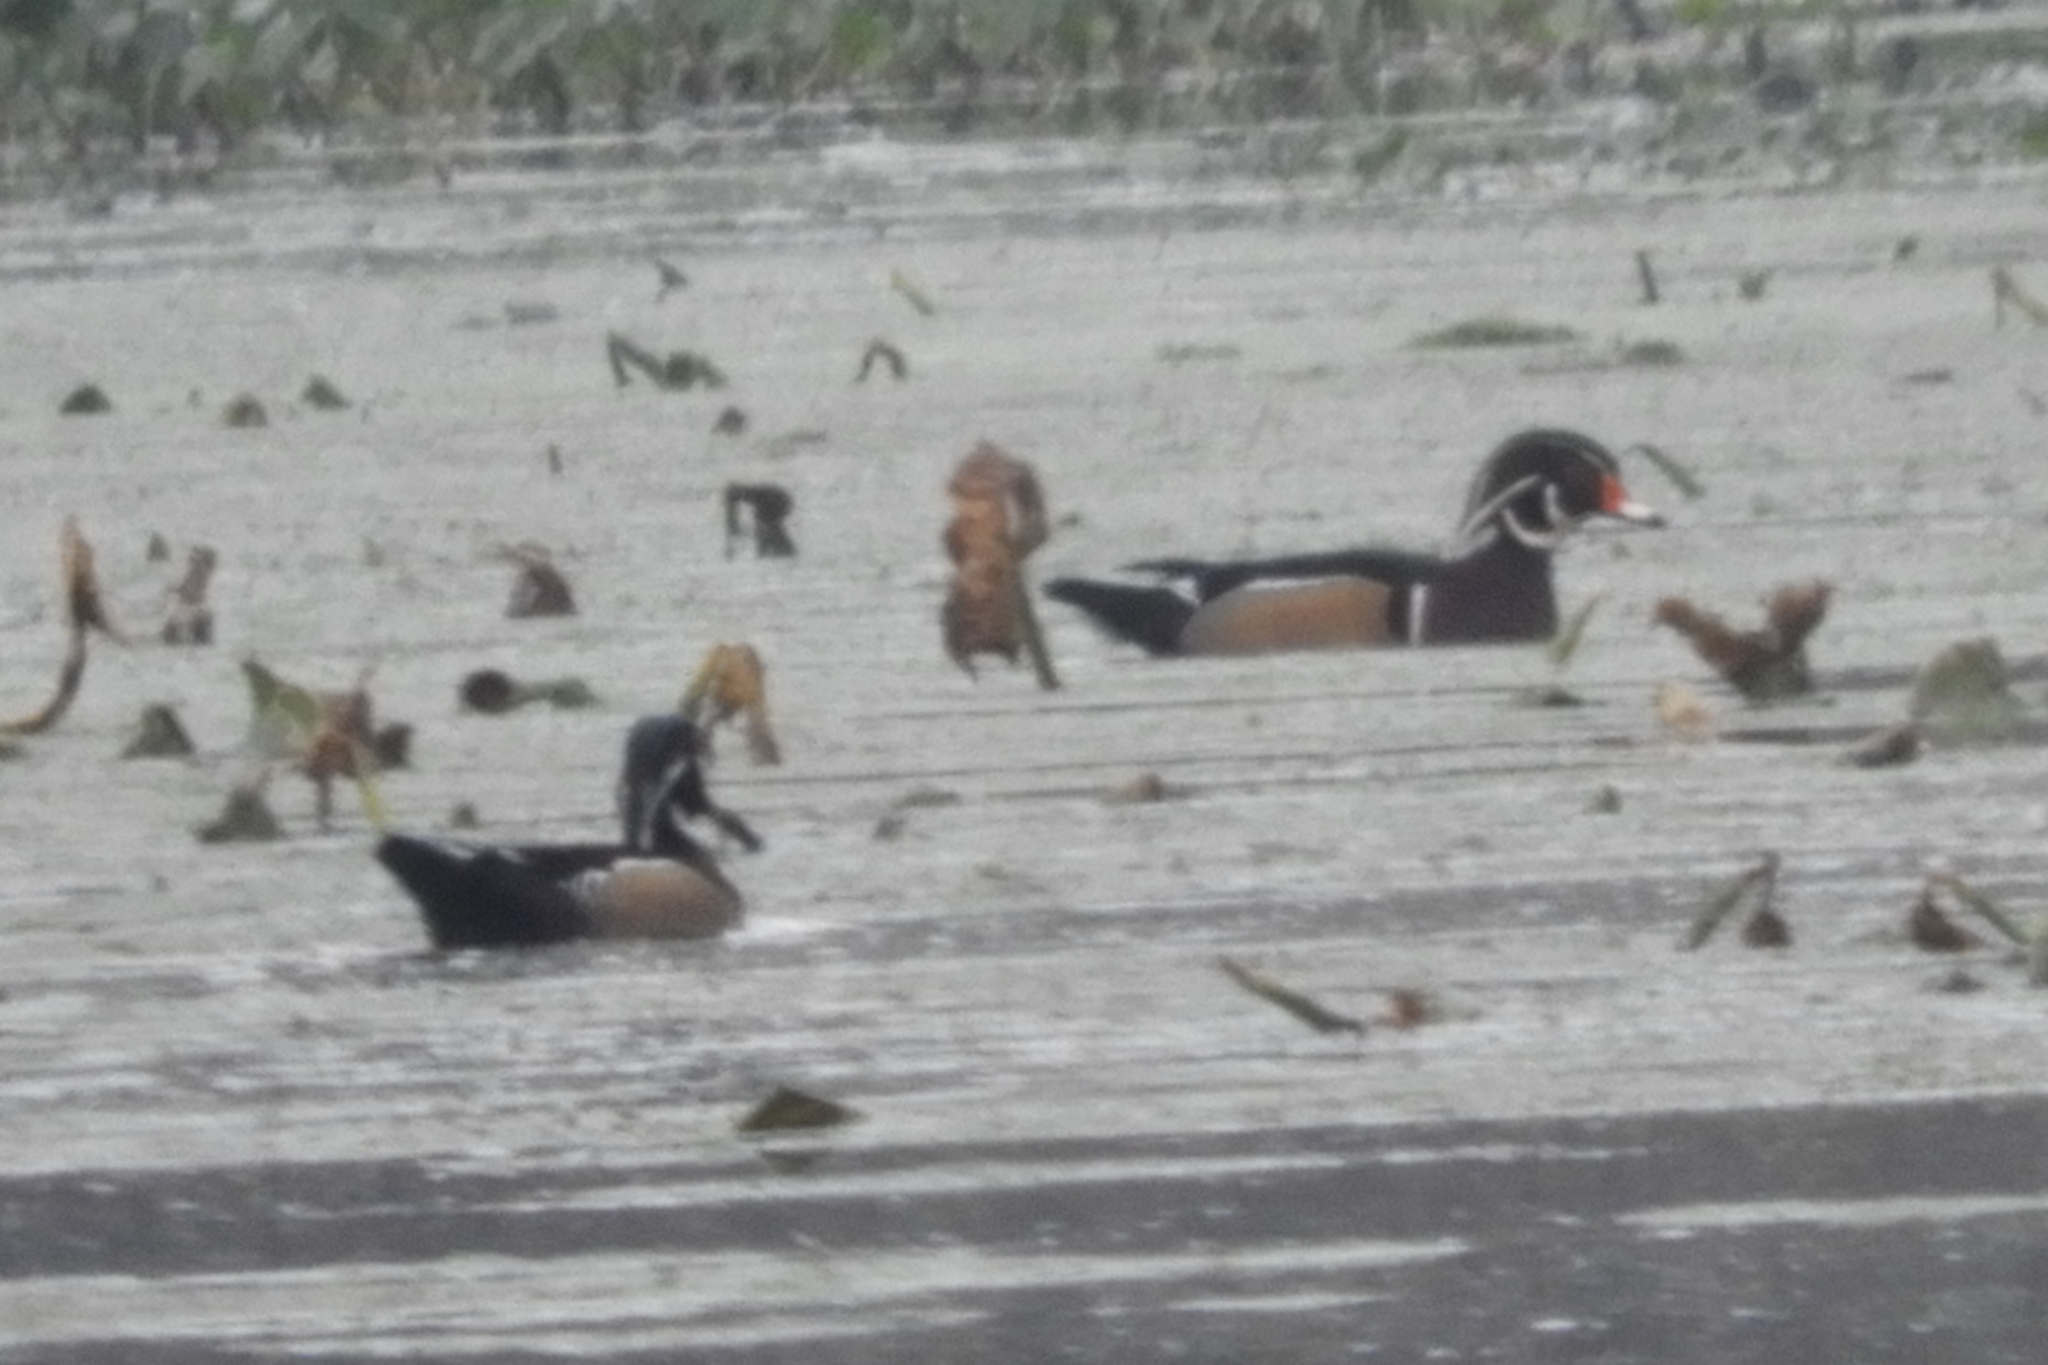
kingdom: Animalia
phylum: Chordata
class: Aves
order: Anseriformes
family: Anatidae
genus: Aix
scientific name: Aix sponsa
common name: Wood duck
